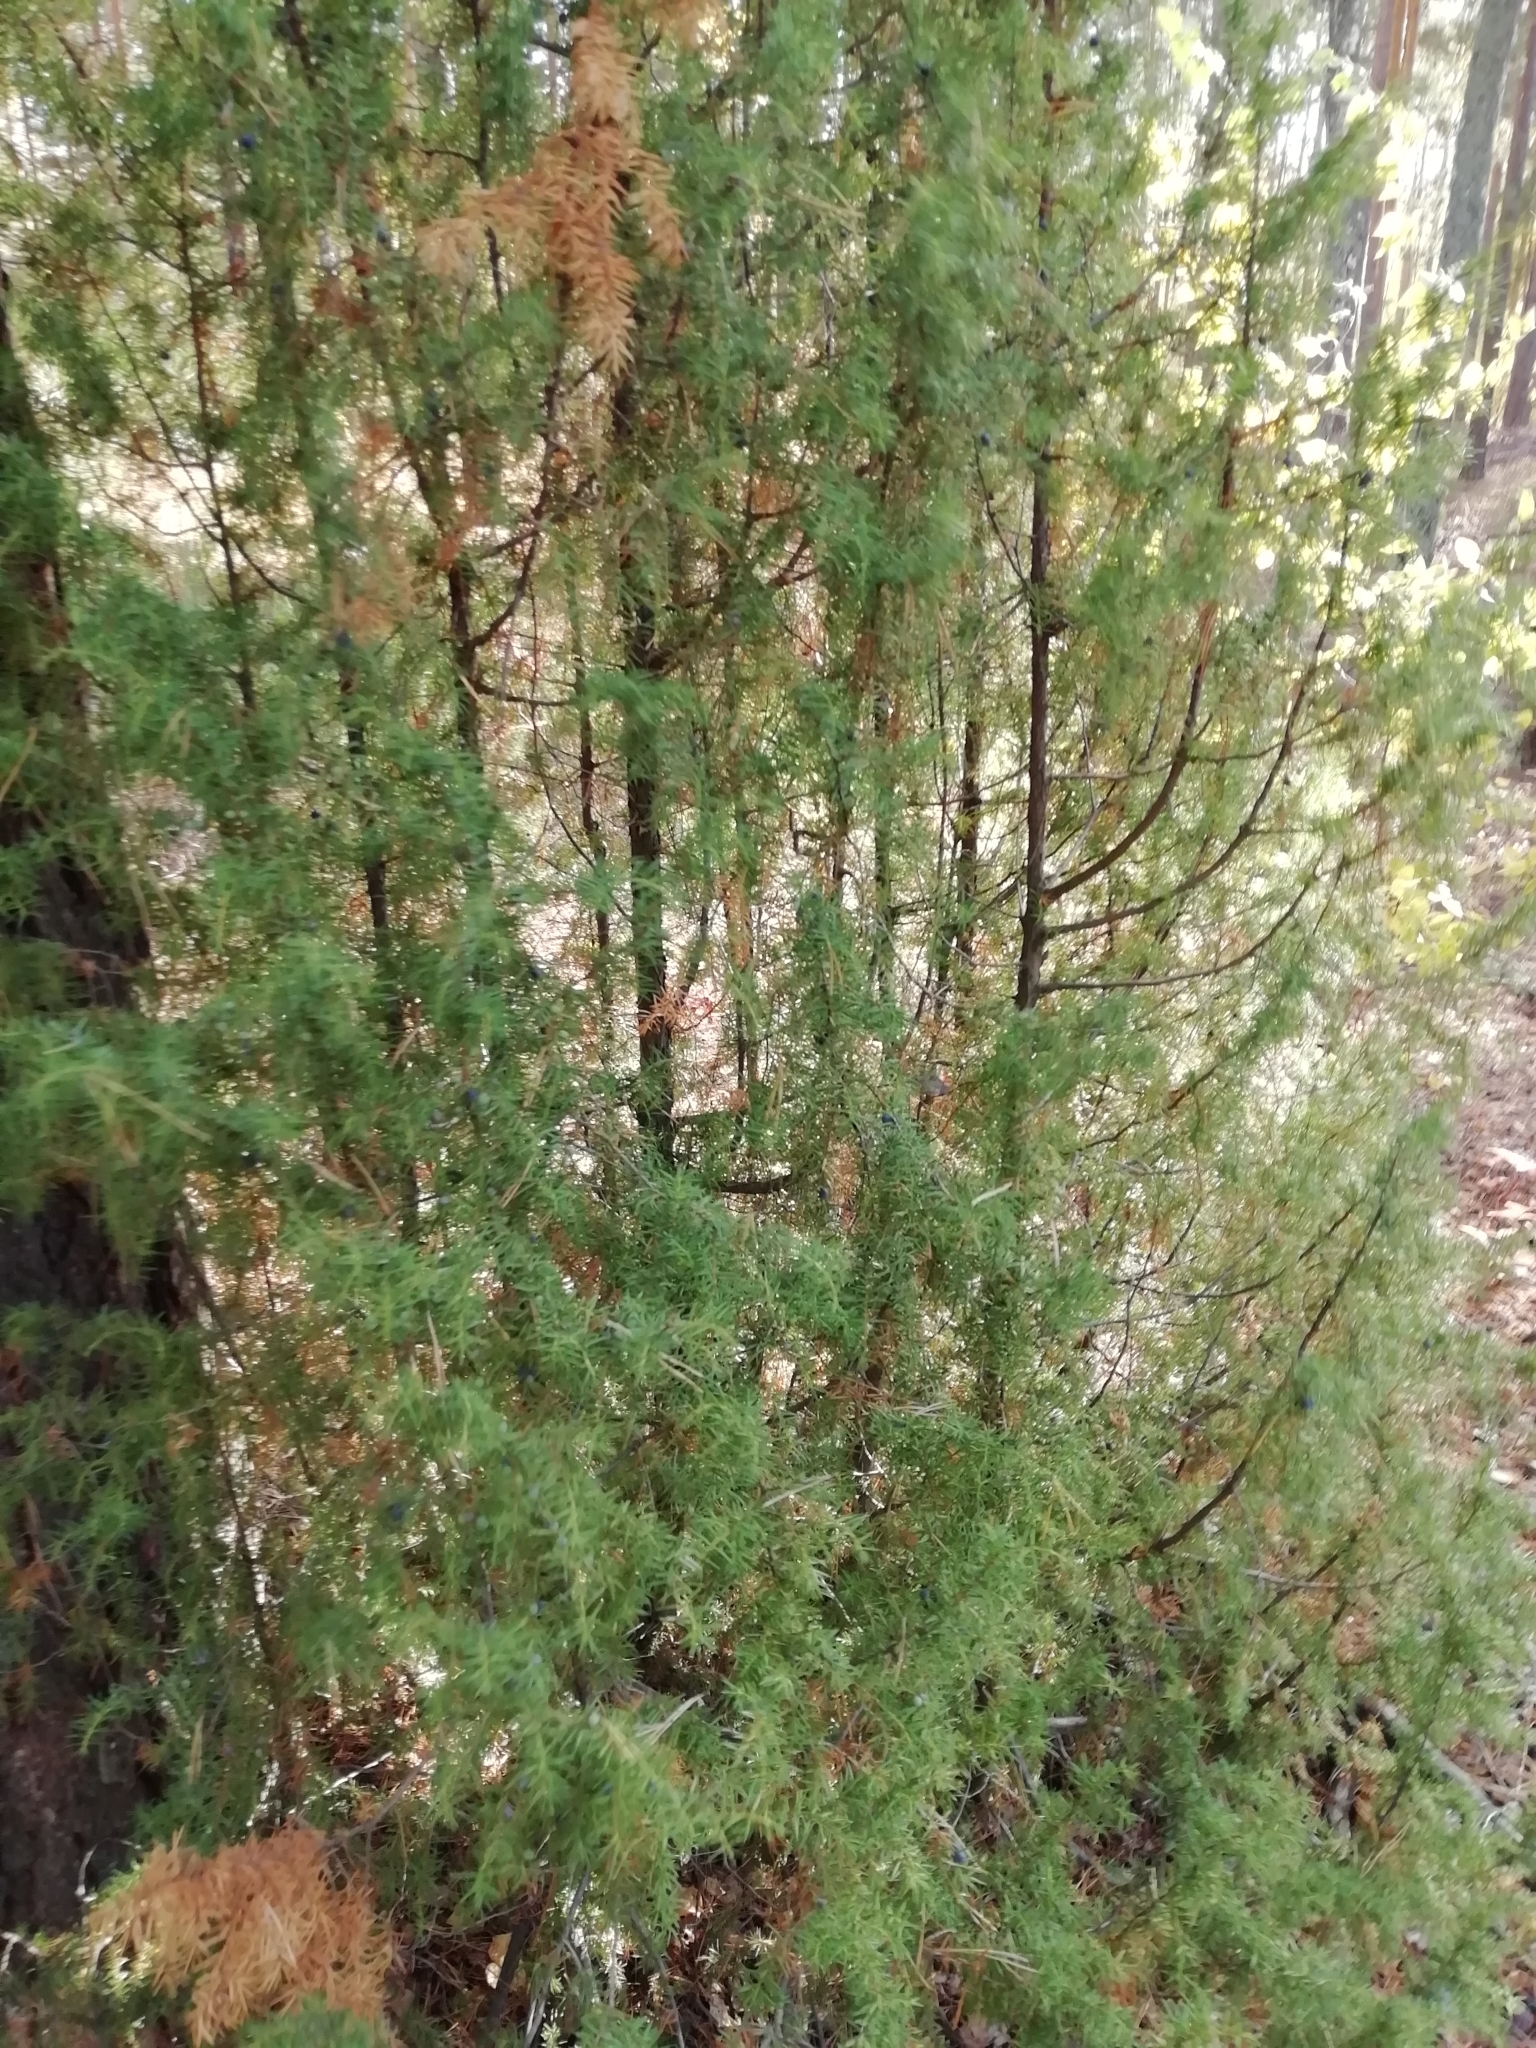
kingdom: Plantae
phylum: Tracheophyta
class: Pinopsida
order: Pinales
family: Cupressaceae
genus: Juniperus
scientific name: Juniperus communis
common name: Common juniper
